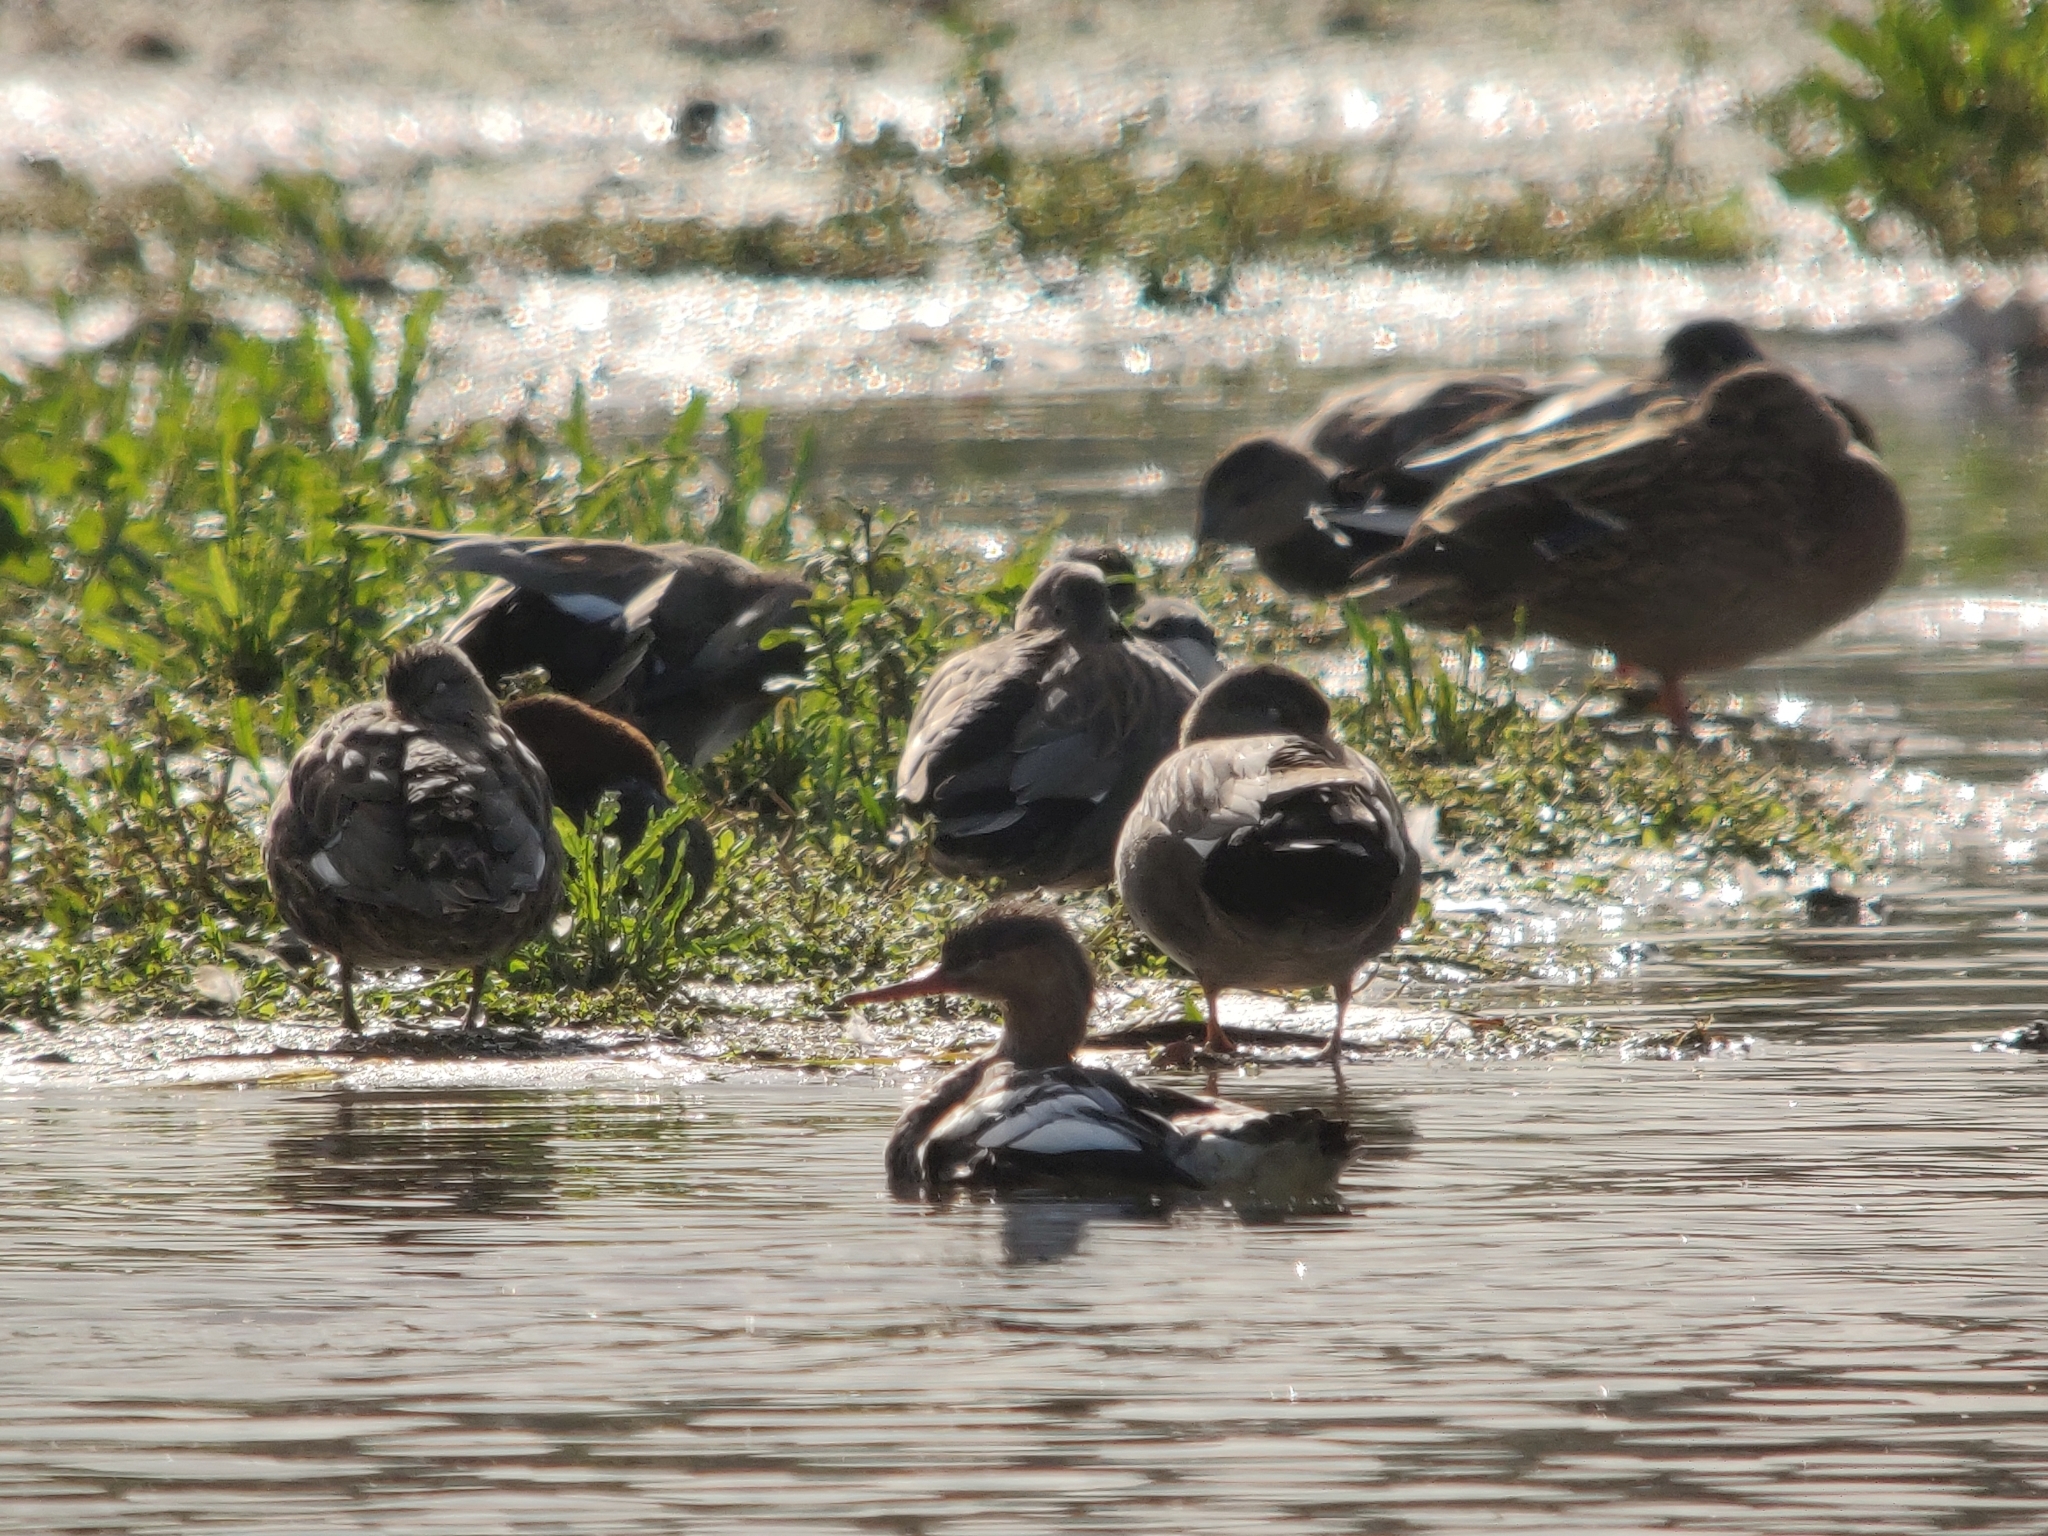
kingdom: Animalia
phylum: Chordata
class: Aves
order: Anseriformes
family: Anatidae
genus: Mergus
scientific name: Mergus serrator
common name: Red-breasted merganser
